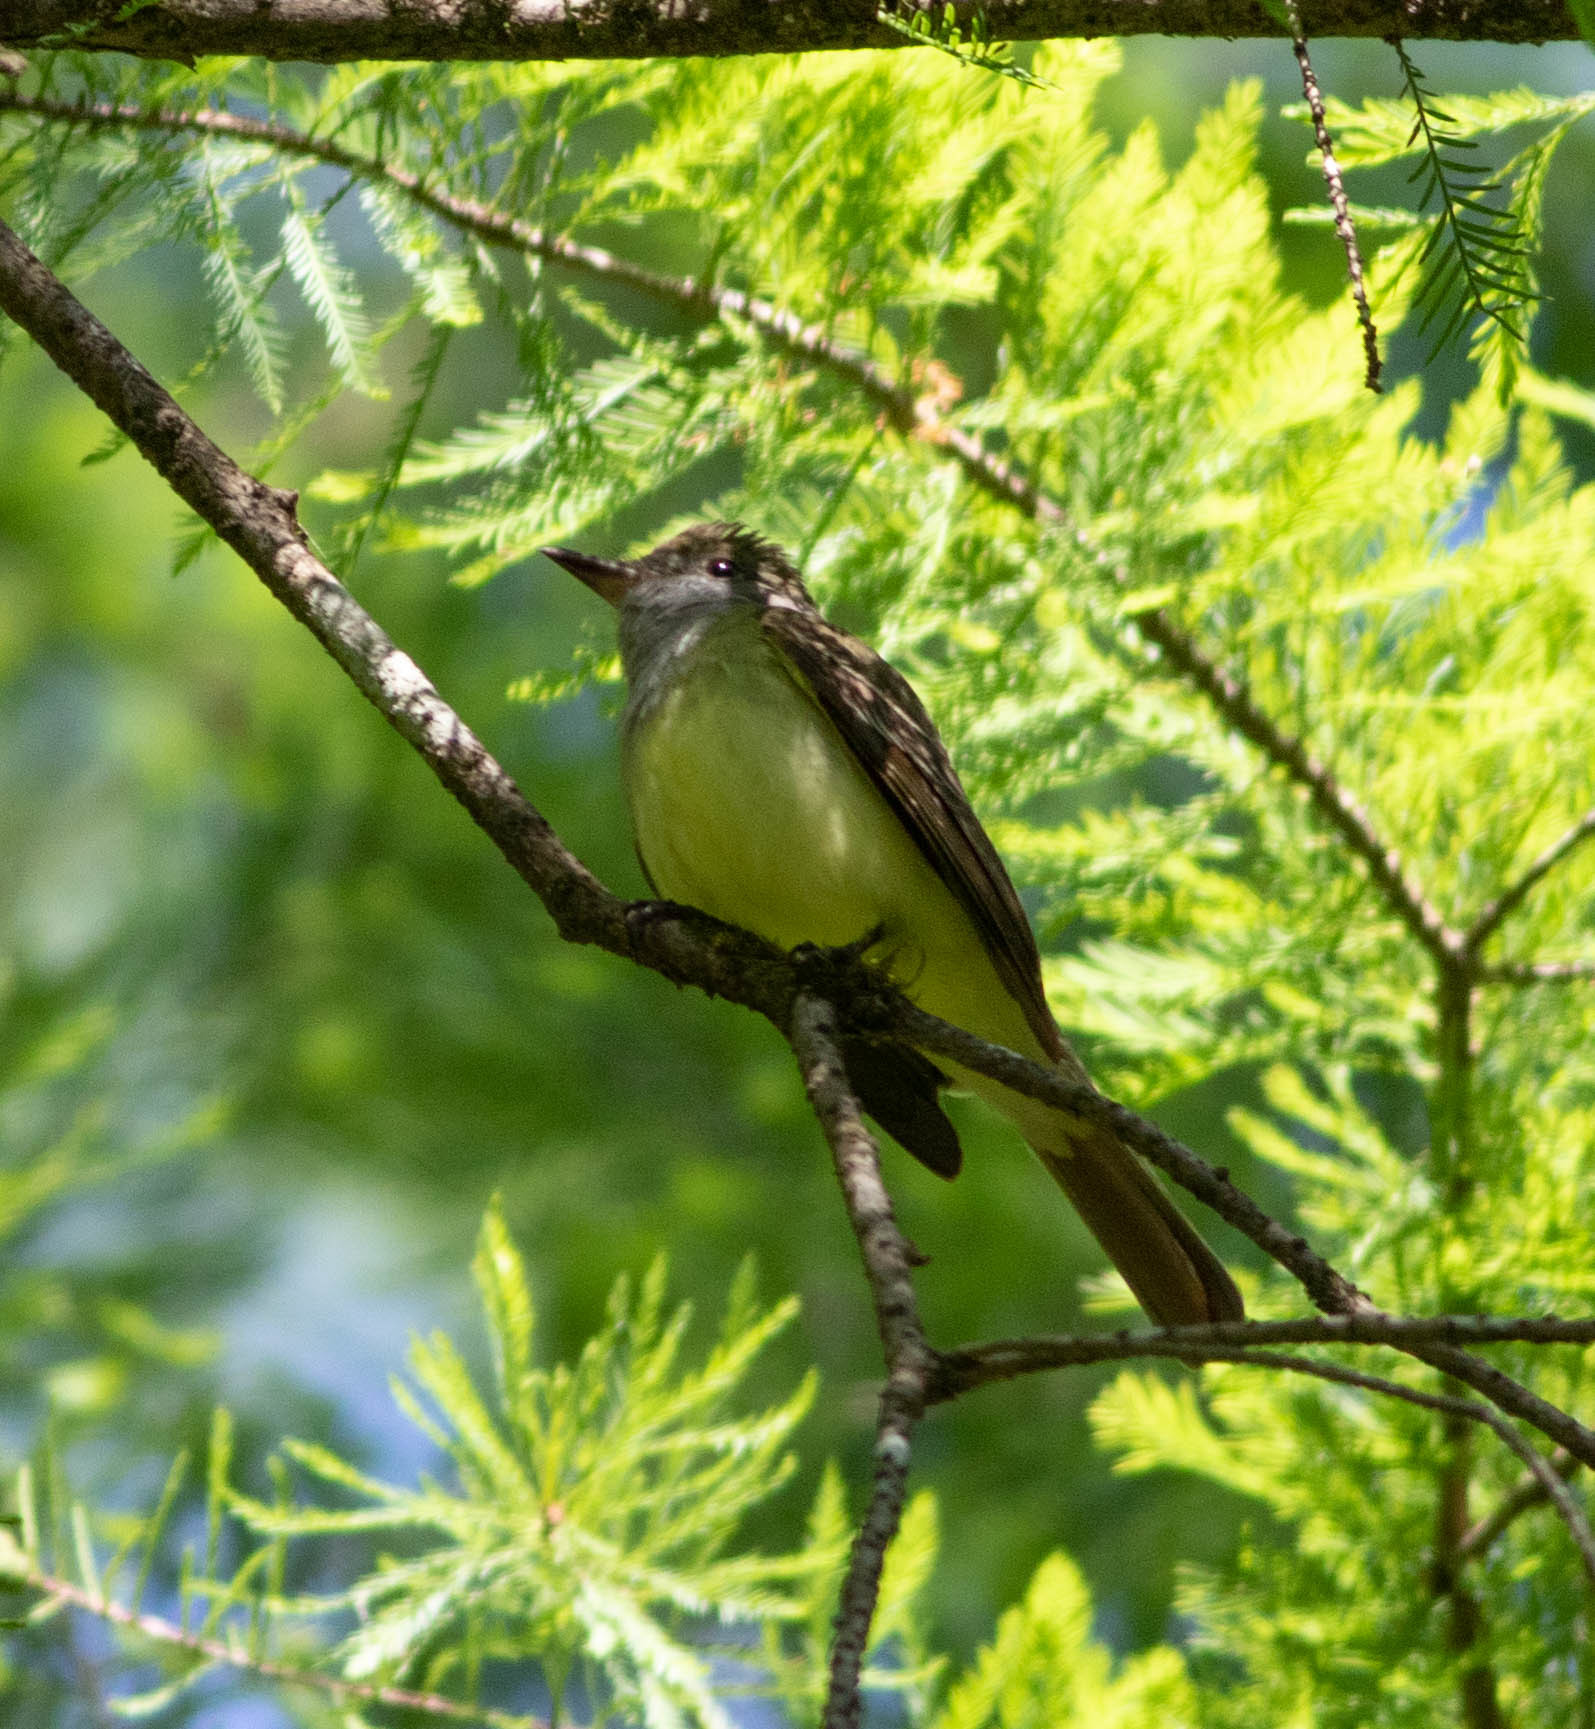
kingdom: Animalia
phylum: Chordata
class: Aves
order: Passeriformes
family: Tyrannidae
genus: Myiarchus
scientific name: Myiarchus crinitus
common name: Great crested flycatcher
